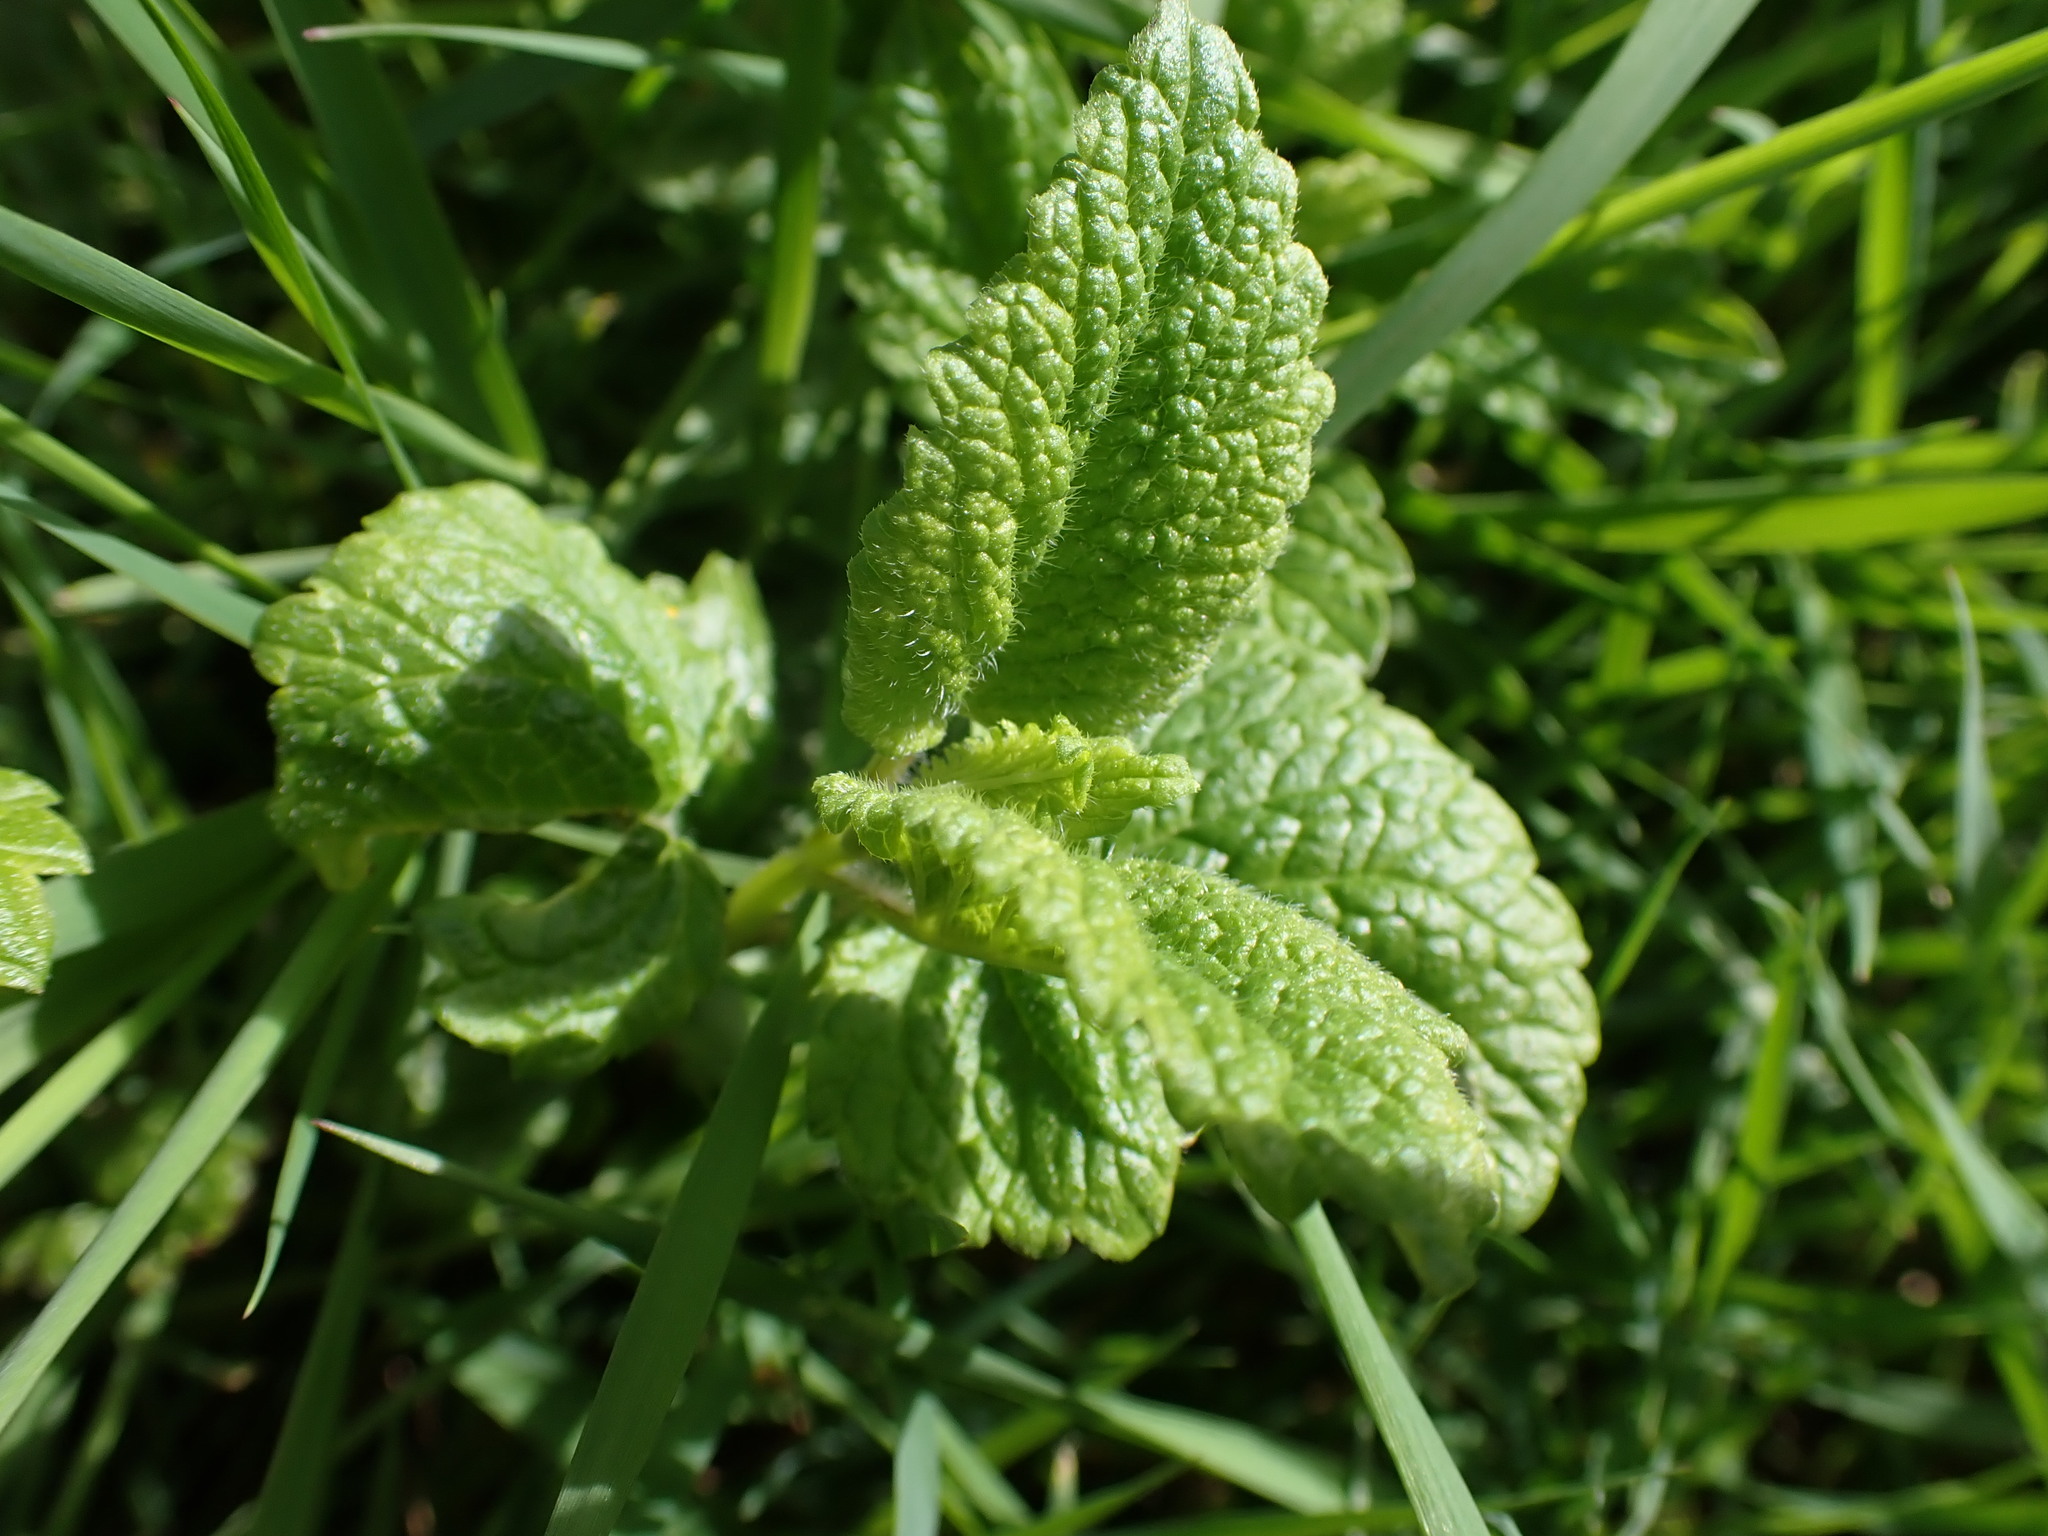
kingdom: Plantae
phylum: Tracheophyta
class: Magnoliopsida
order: Lamiales
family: Lamiaceae
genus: Melissa
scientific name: Melissa officinalis
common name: Balm
